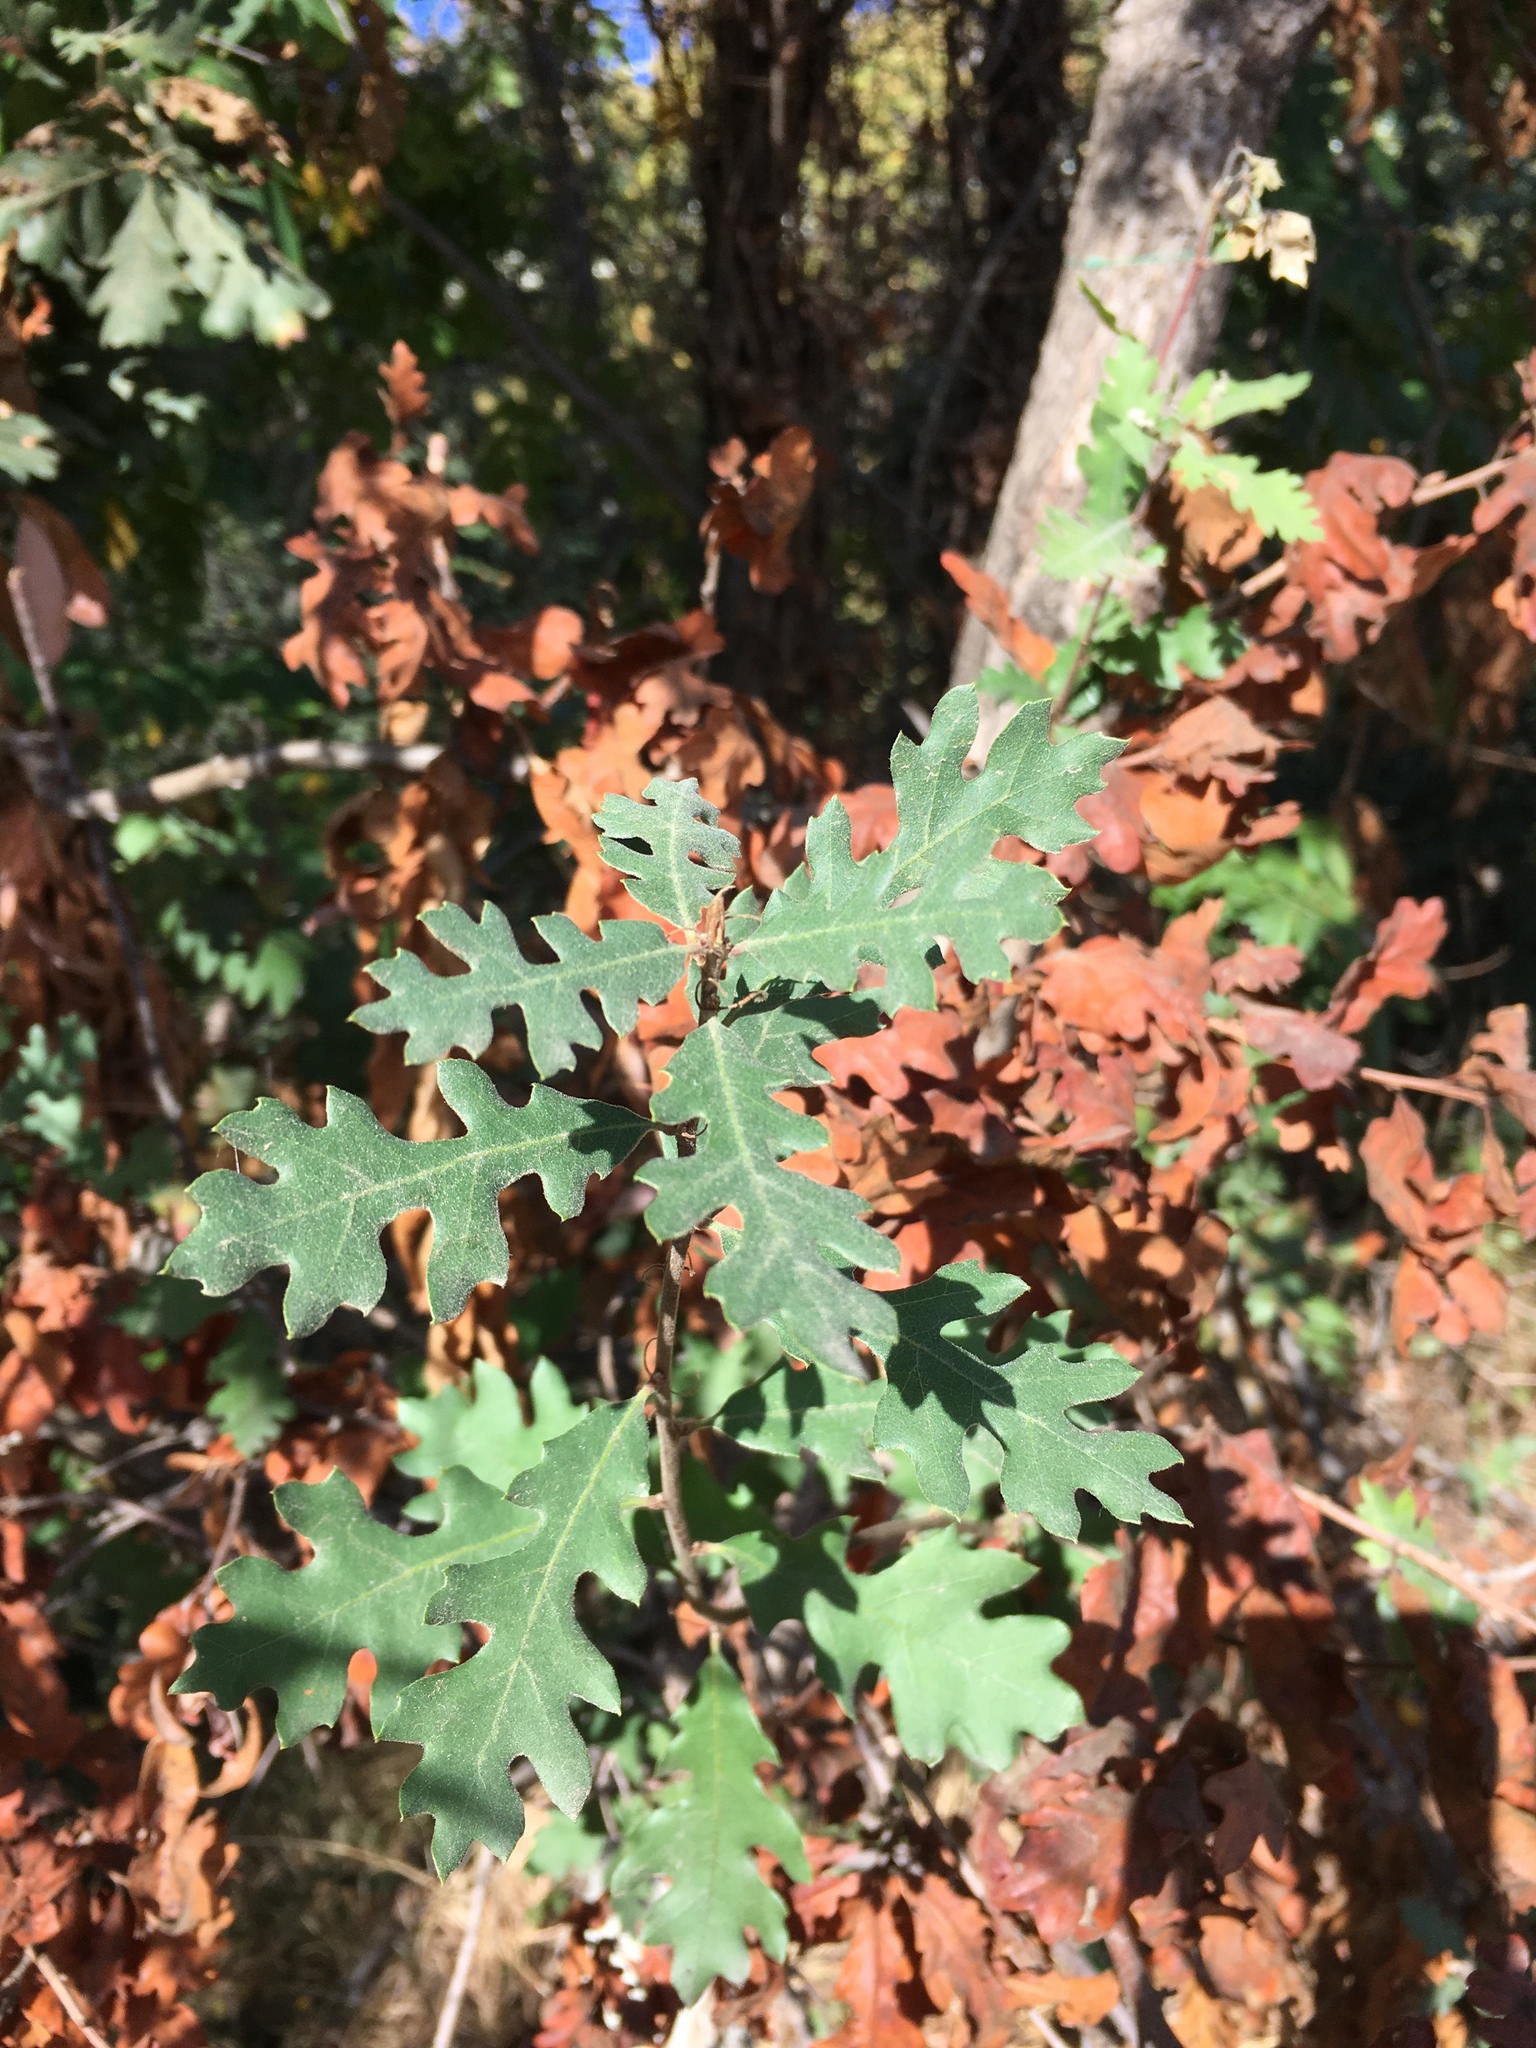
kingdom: Plantae
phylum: Tracheophyta
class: Magnoliopsida
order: Fagales
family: Fagaceae
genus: Quercus
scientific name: Quercus lobata
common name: Valley oak
